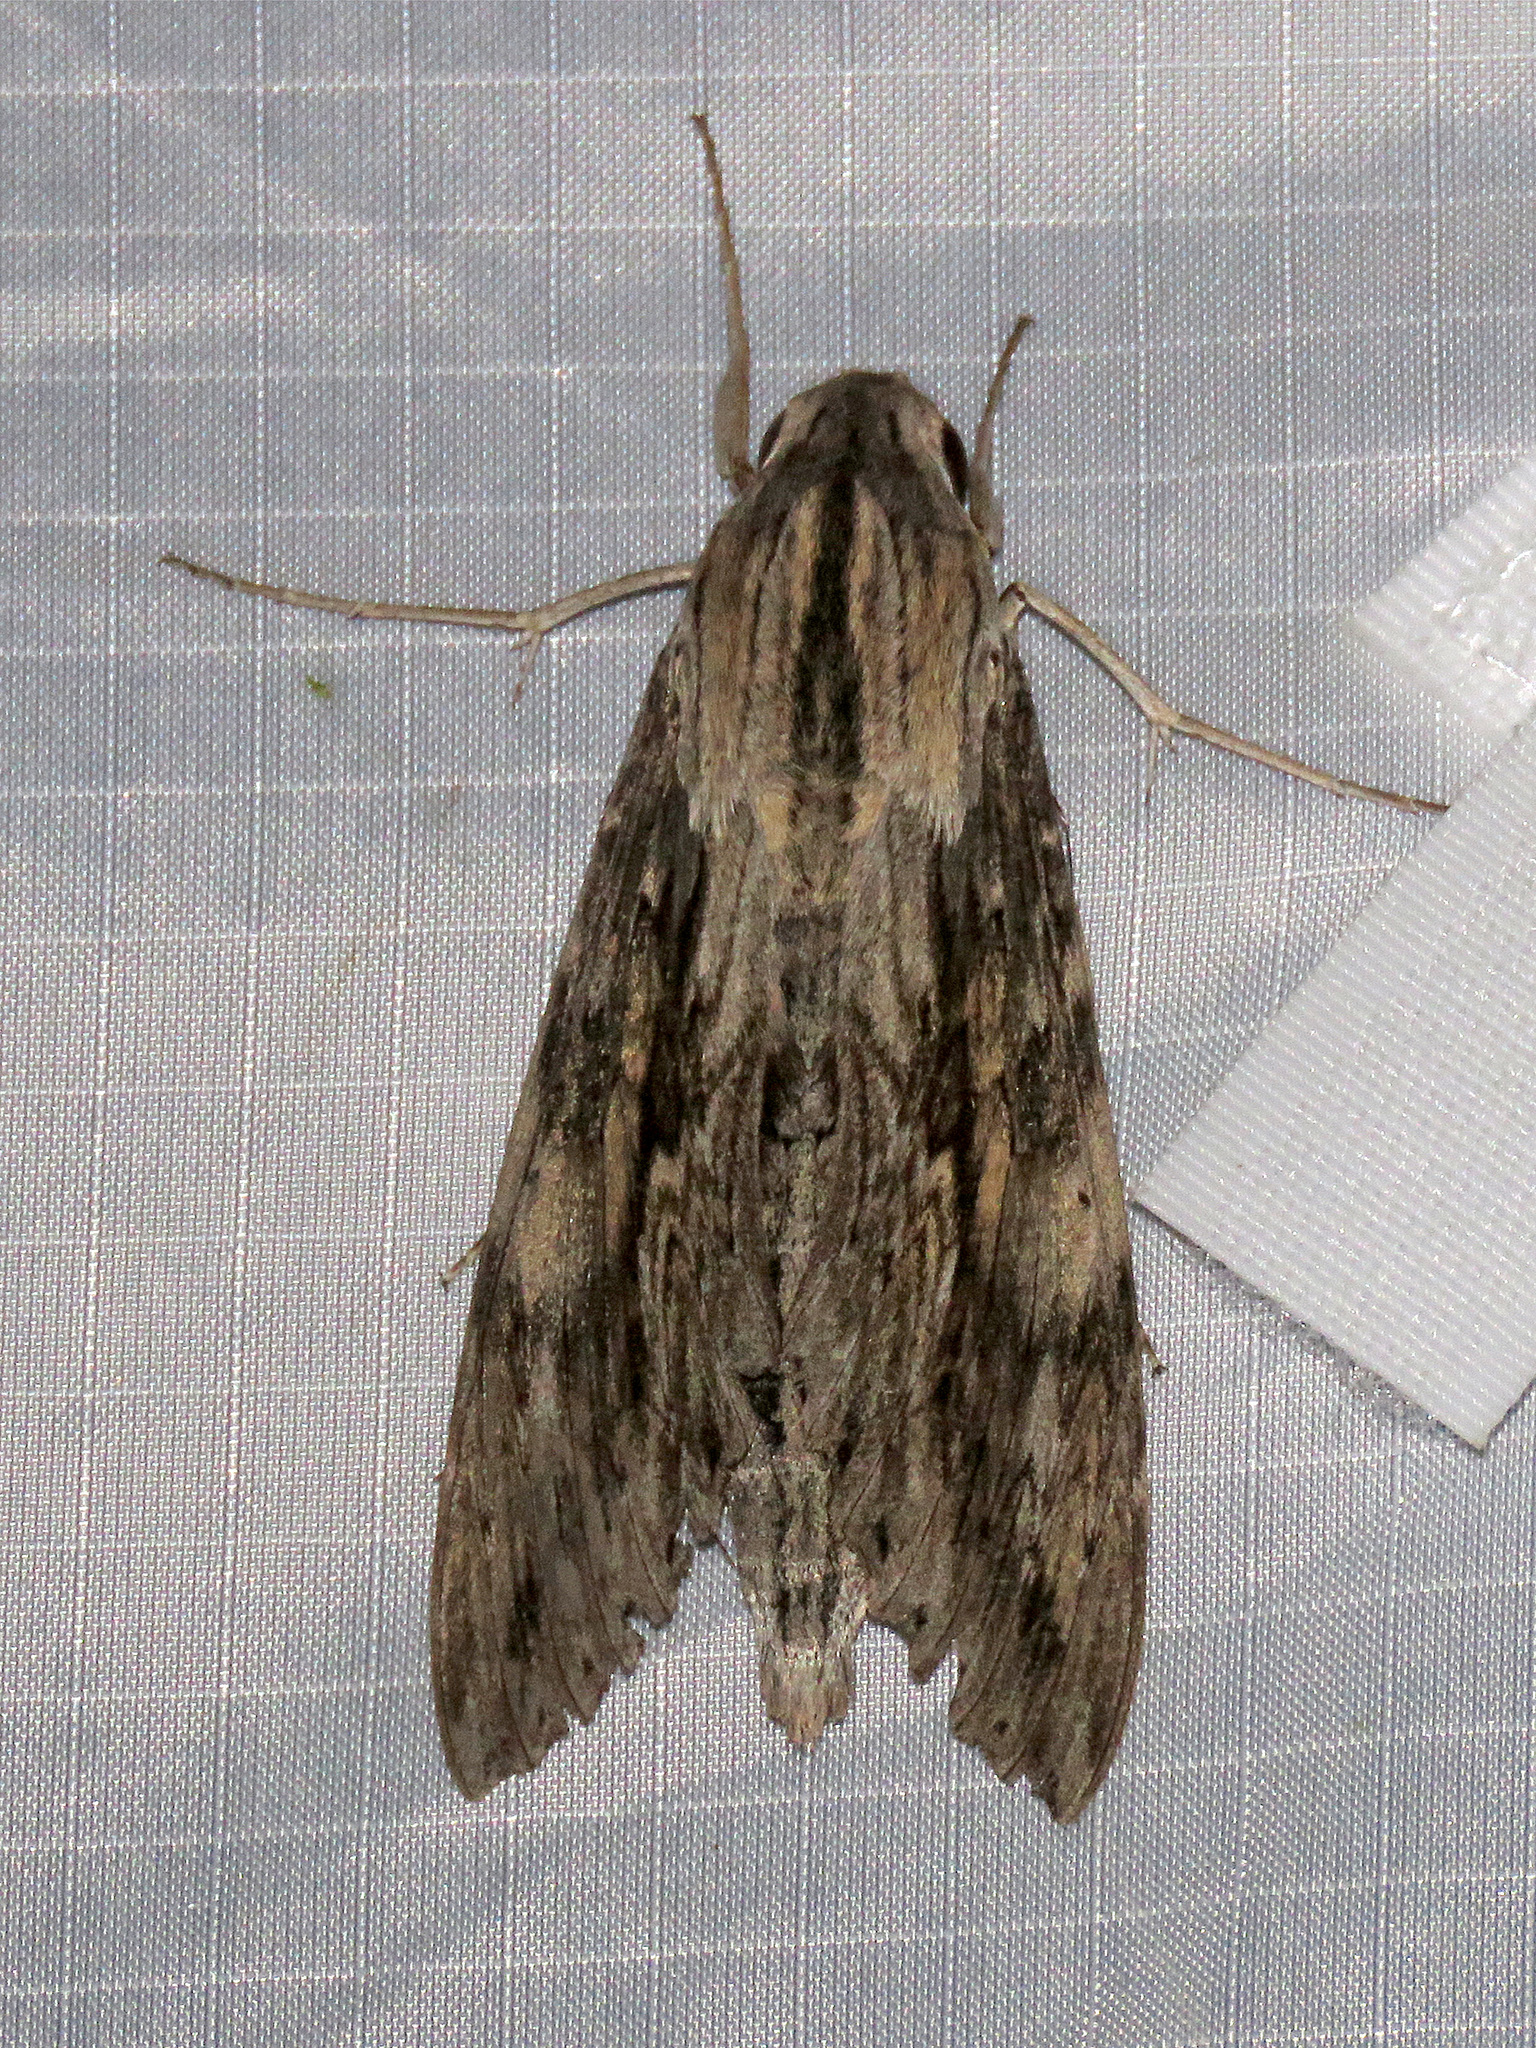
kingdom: Animalia
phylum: Arthropoda
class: Insecta
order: Lepidoptera
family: Sphingidae
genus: Erinnyis
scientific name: Erinnyis ello
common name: Ello sphinx
